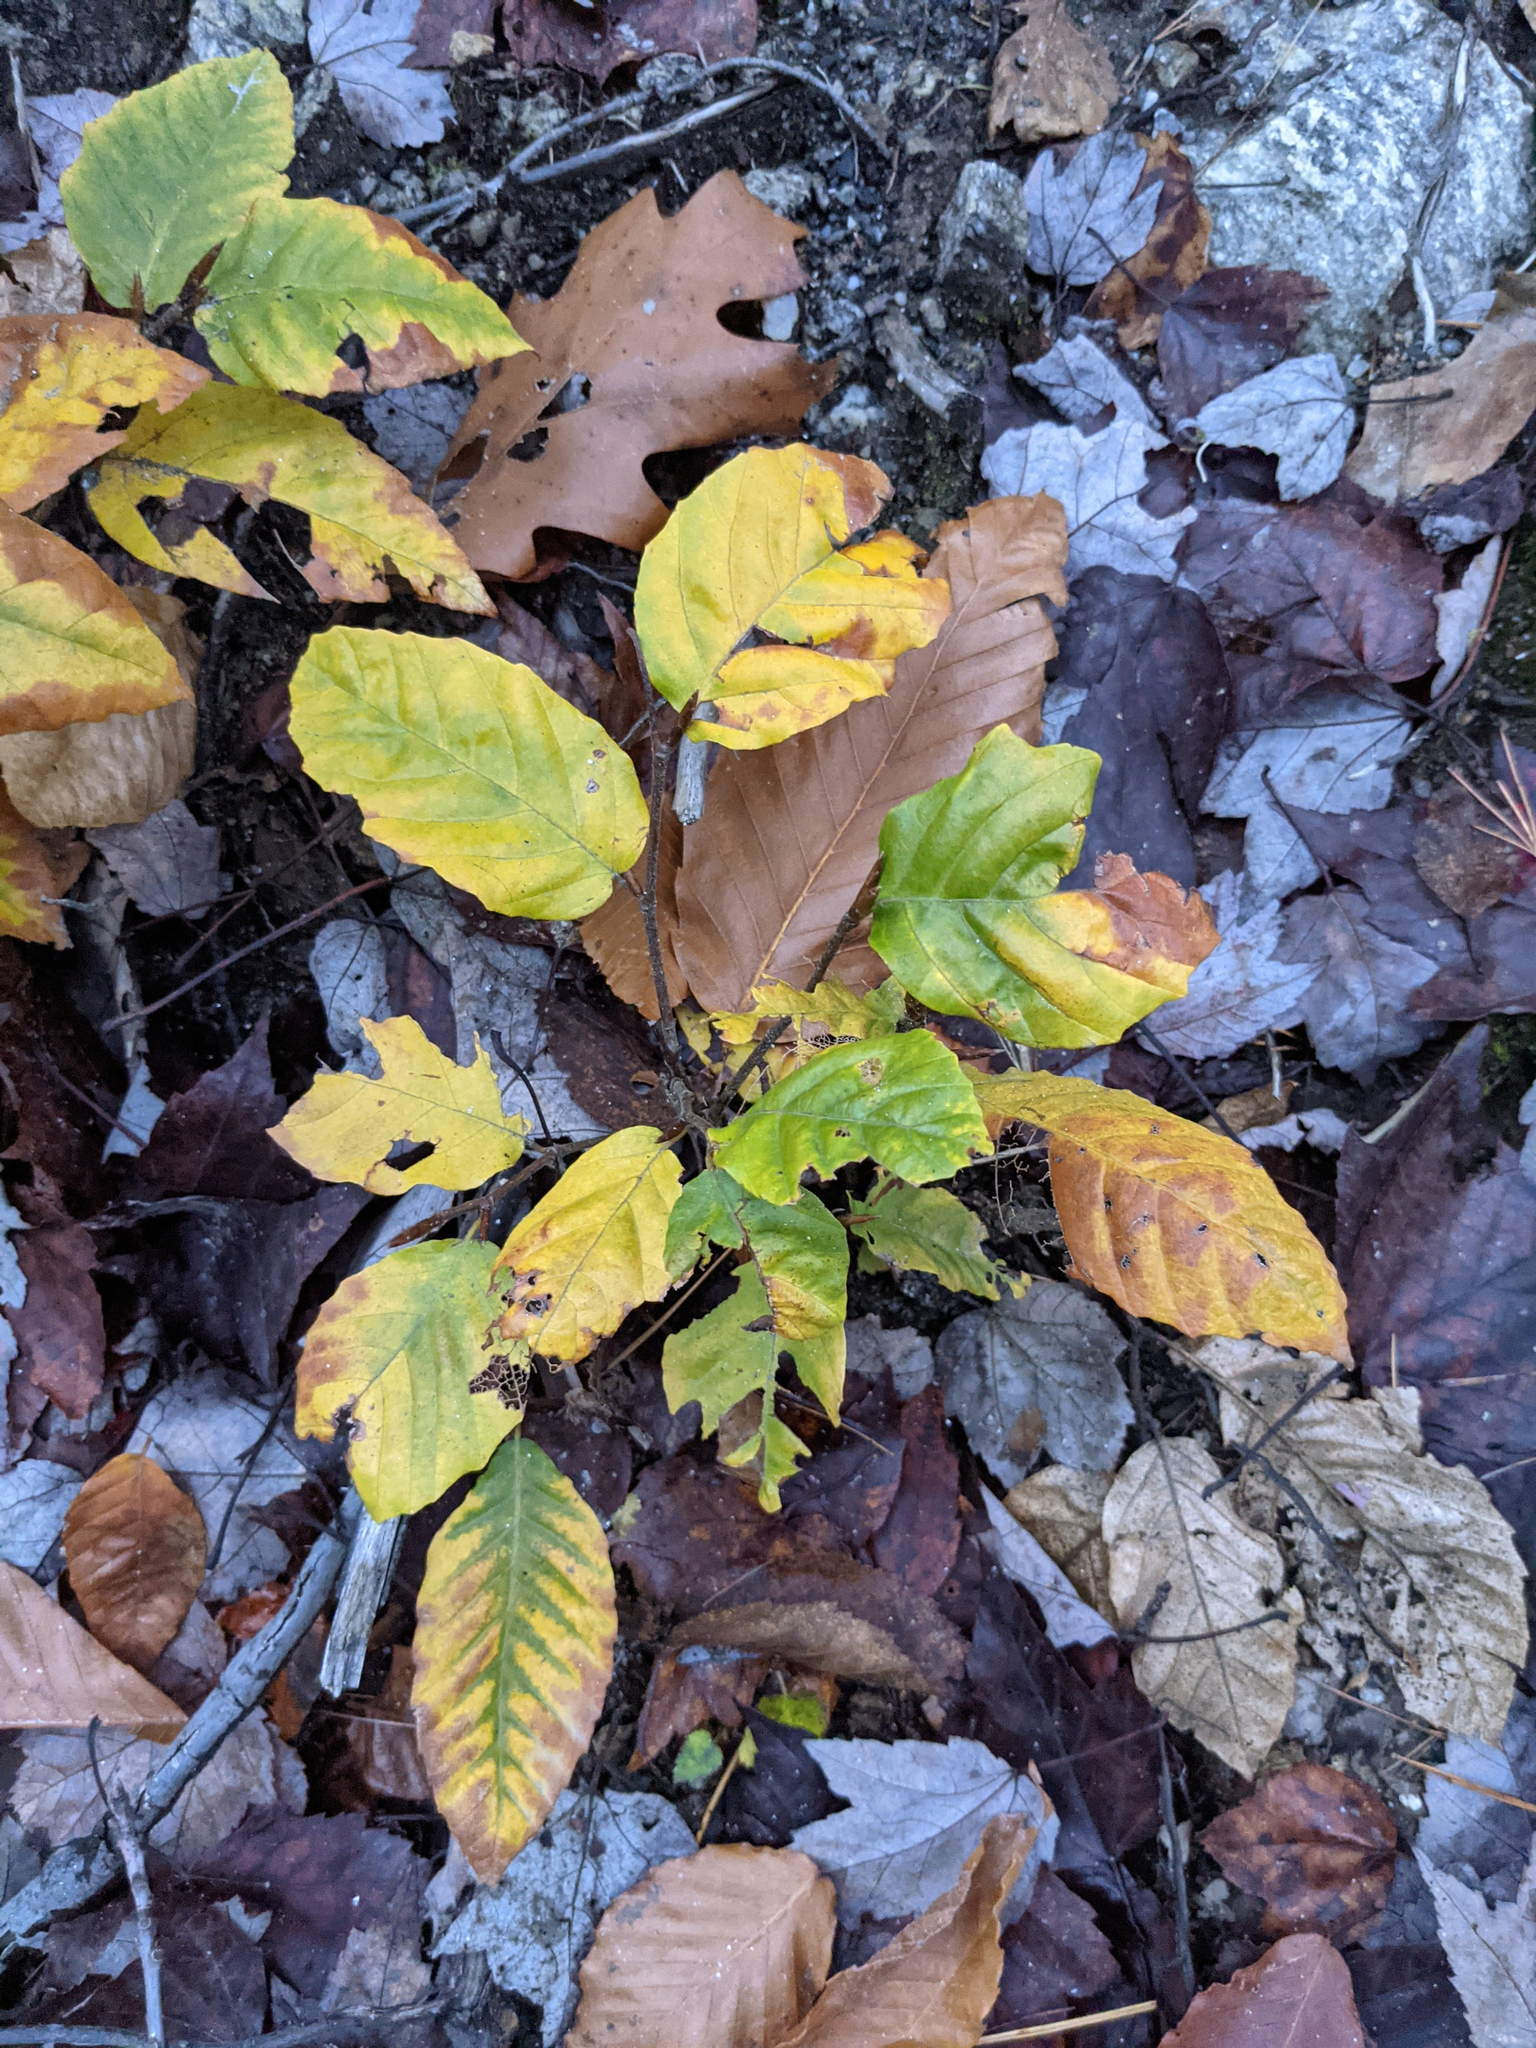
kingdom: Plantae
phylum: Tracheophyta
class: Magnoliopsida
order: Fagales
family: Fagaceae
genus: Fagus
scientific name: Fagus grandifolia
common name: American beech
